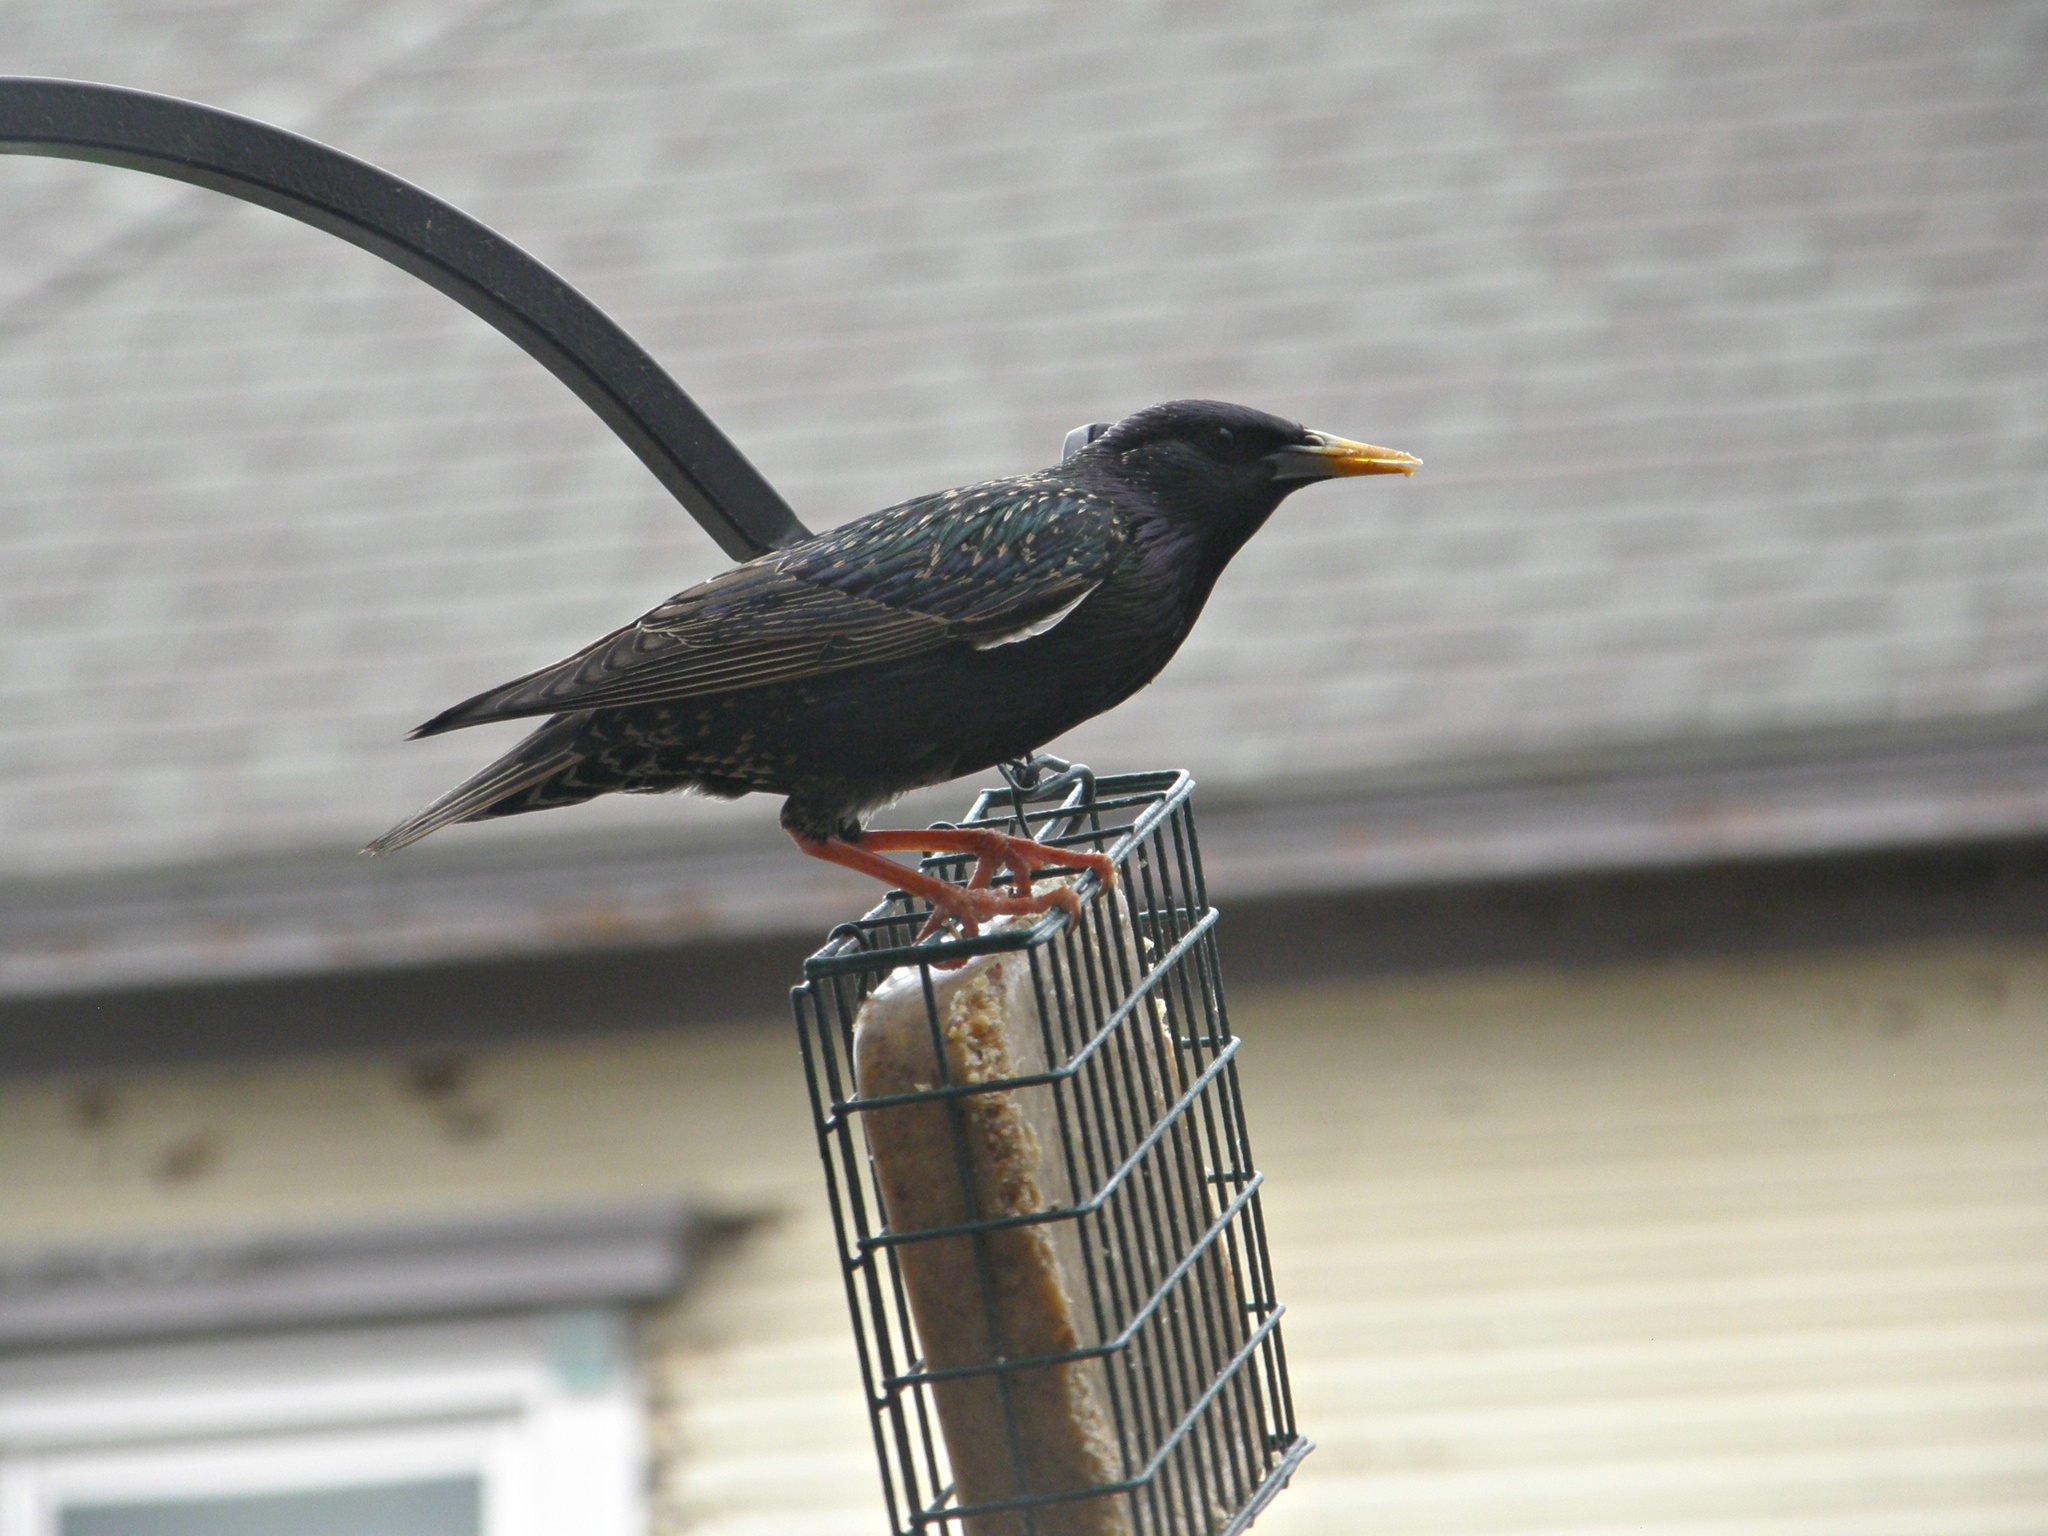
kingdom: Animalia
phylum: Chordata
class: Aves
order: Passeriformes
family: Sturnidae
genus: Sturnus
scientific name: Sturnus vulgaris
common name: Common starling
